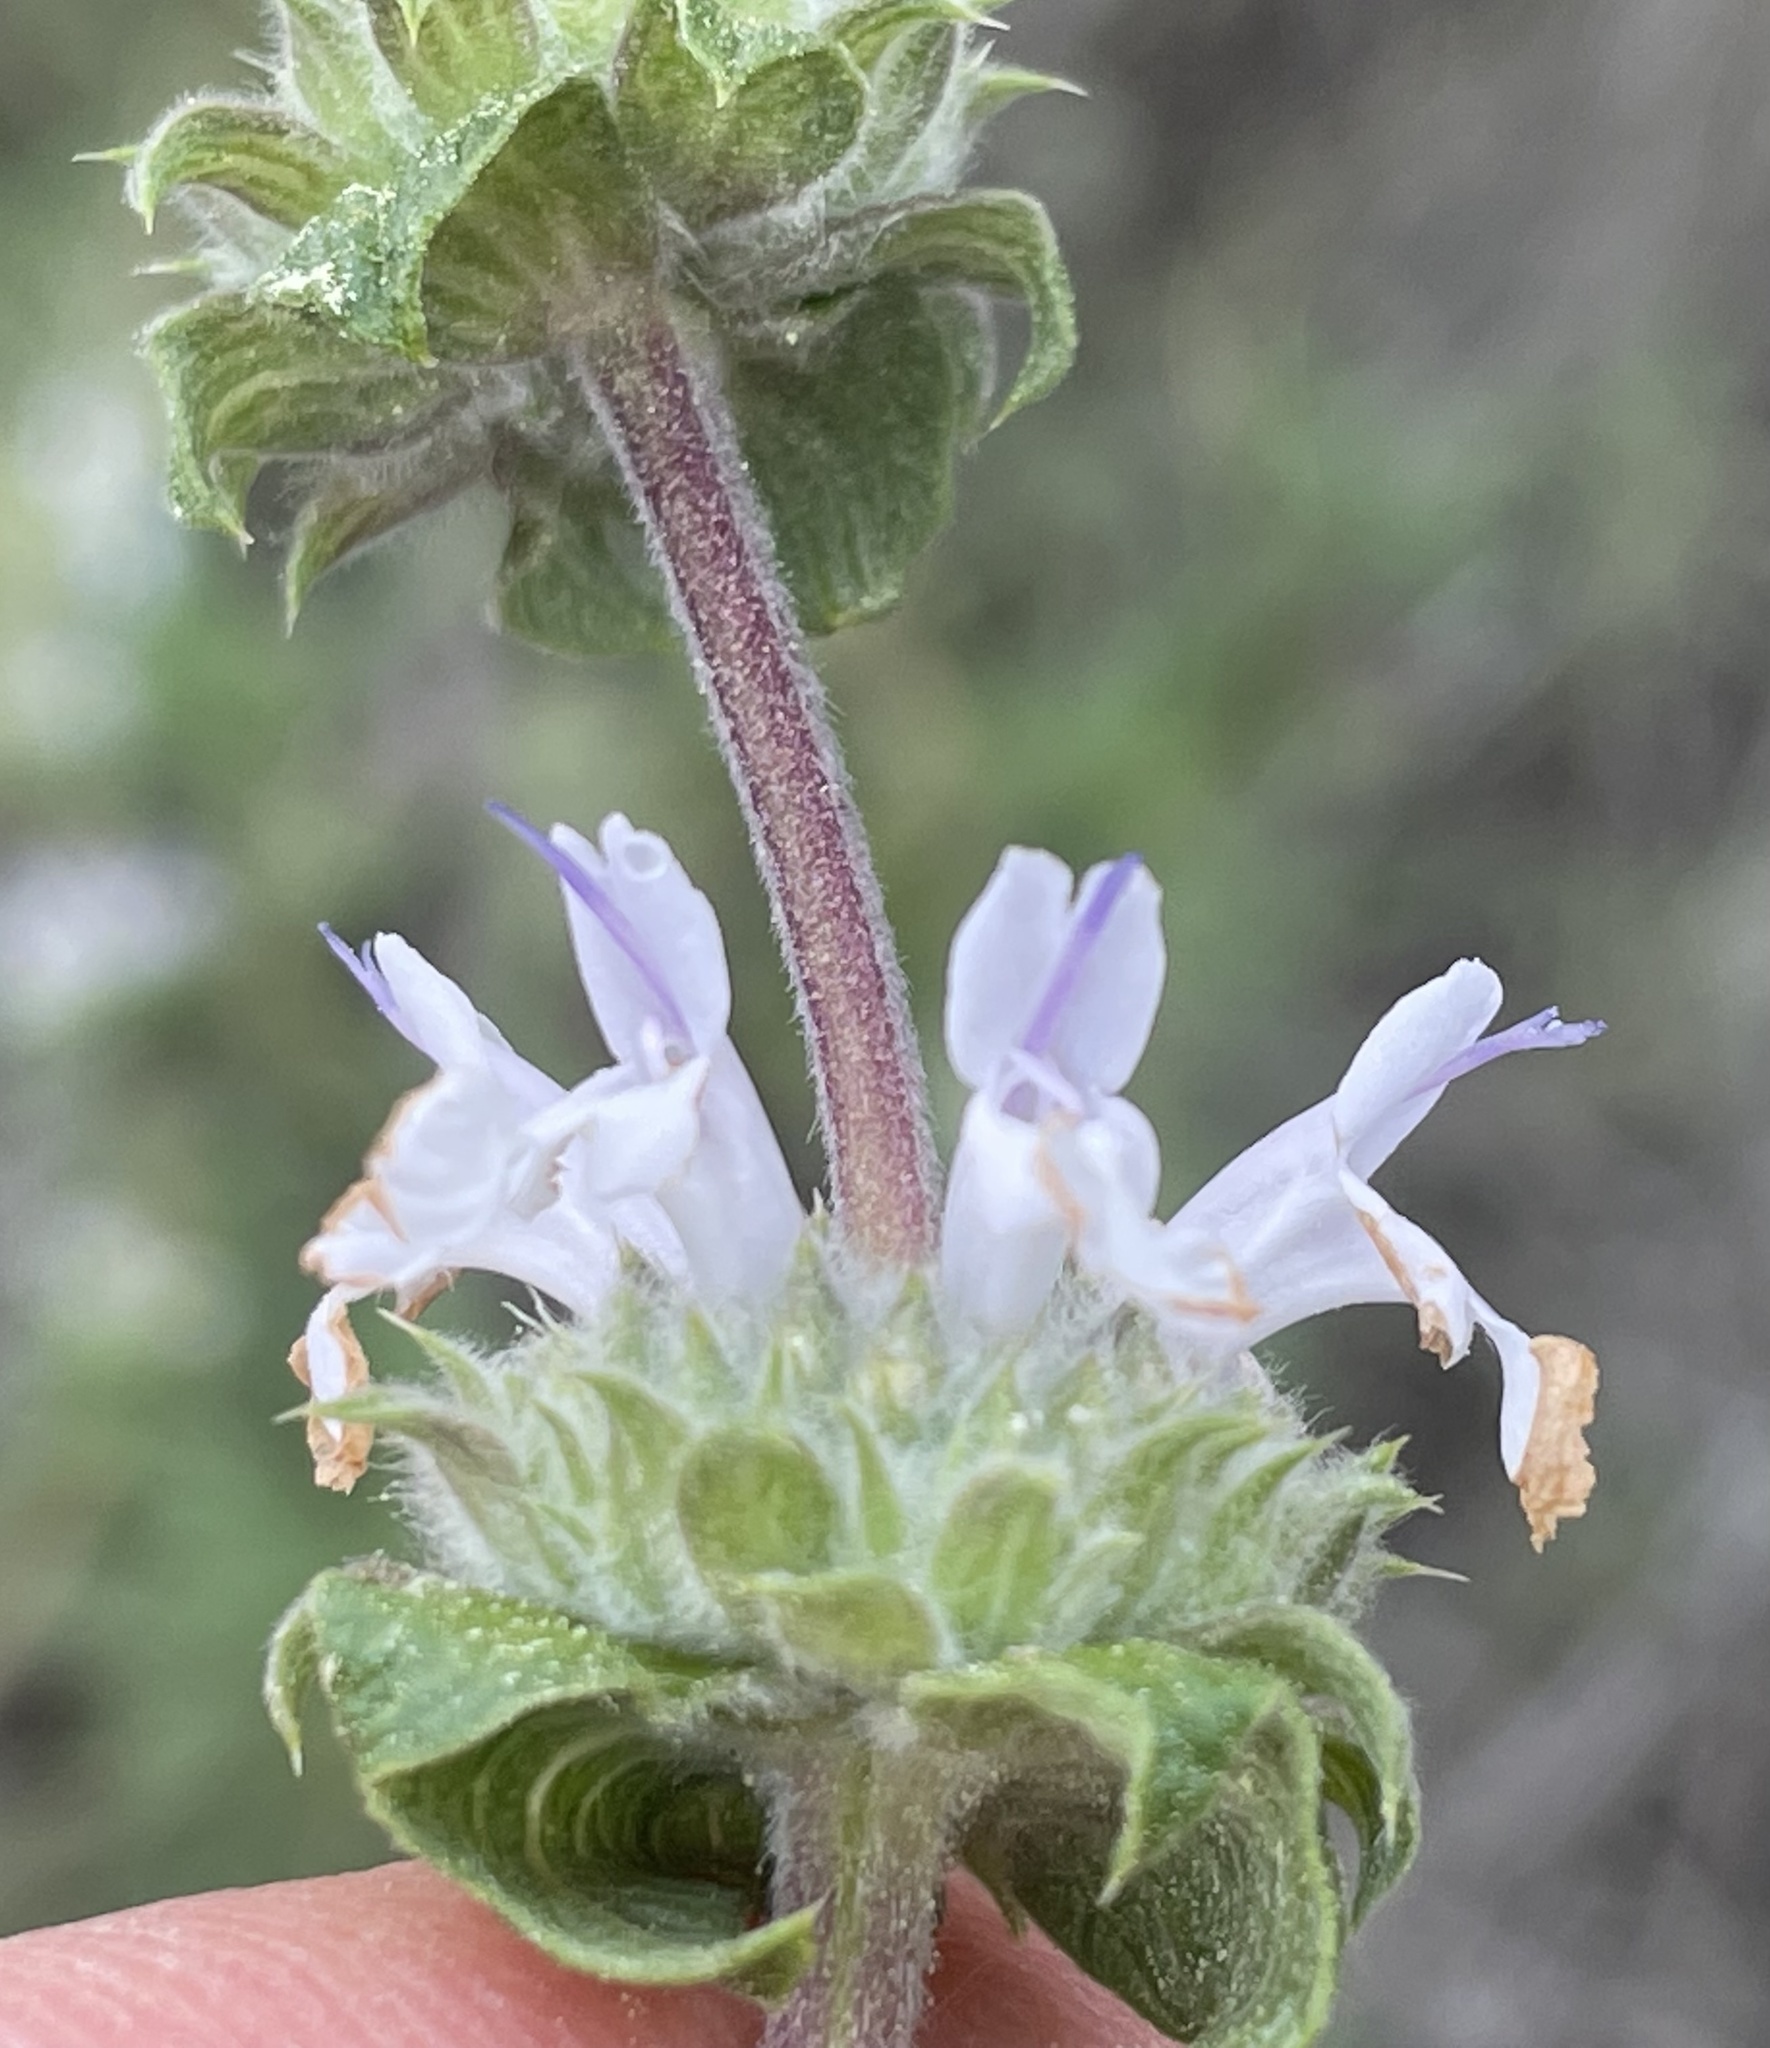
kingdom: Plantae
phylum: Tracheophyta
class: Magnoliopsida
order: Lamiales
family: Lamiaceae
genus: Salvia
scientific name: Salvia mellifera
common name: Black sage
